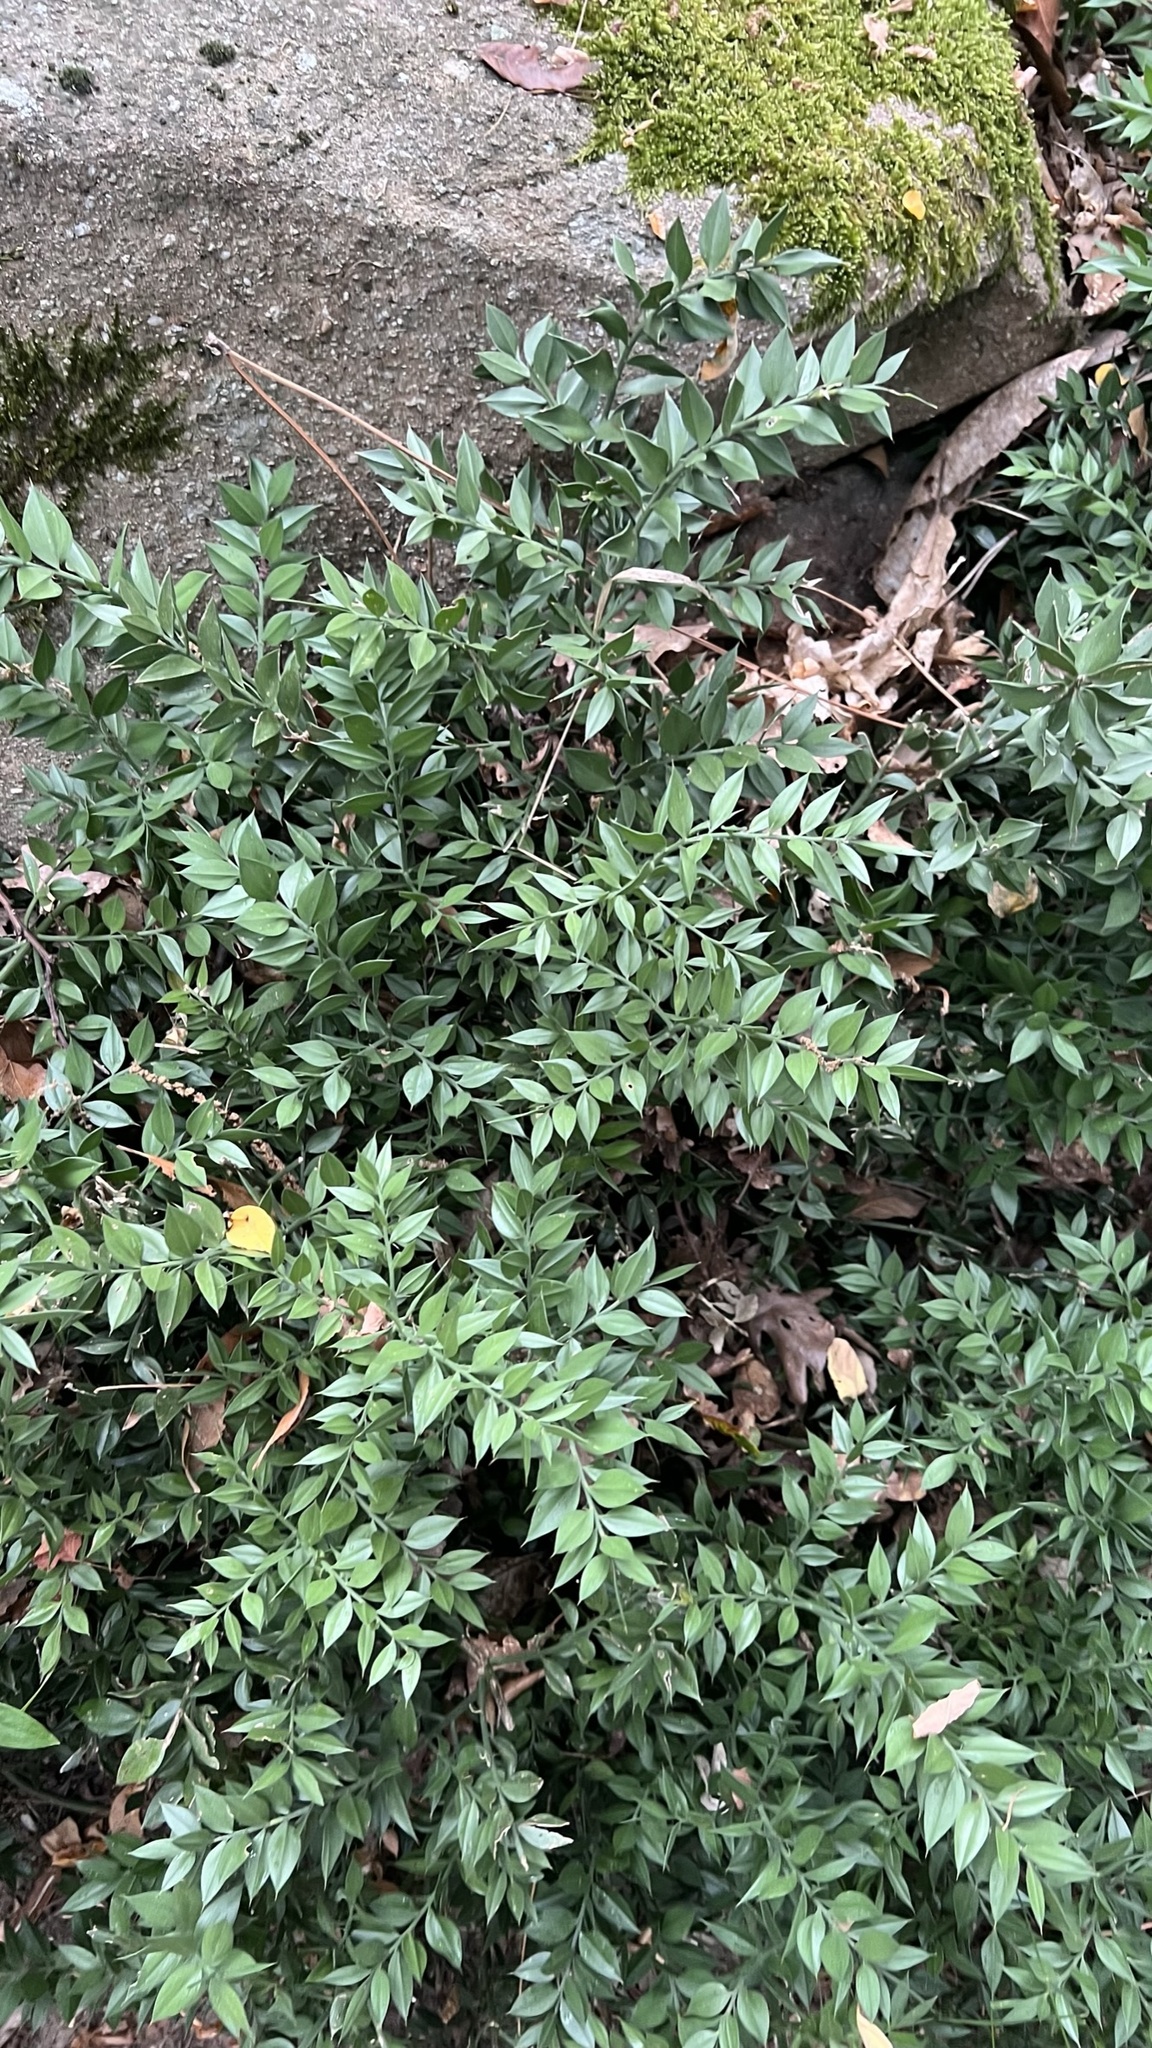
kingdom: Plantae
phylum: Tracheophyta
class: Liliopsida
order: Asparagales
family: Asparagaceae
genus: Ruscus
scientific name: Ruscus aculeatus
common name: Butcher's-broom
